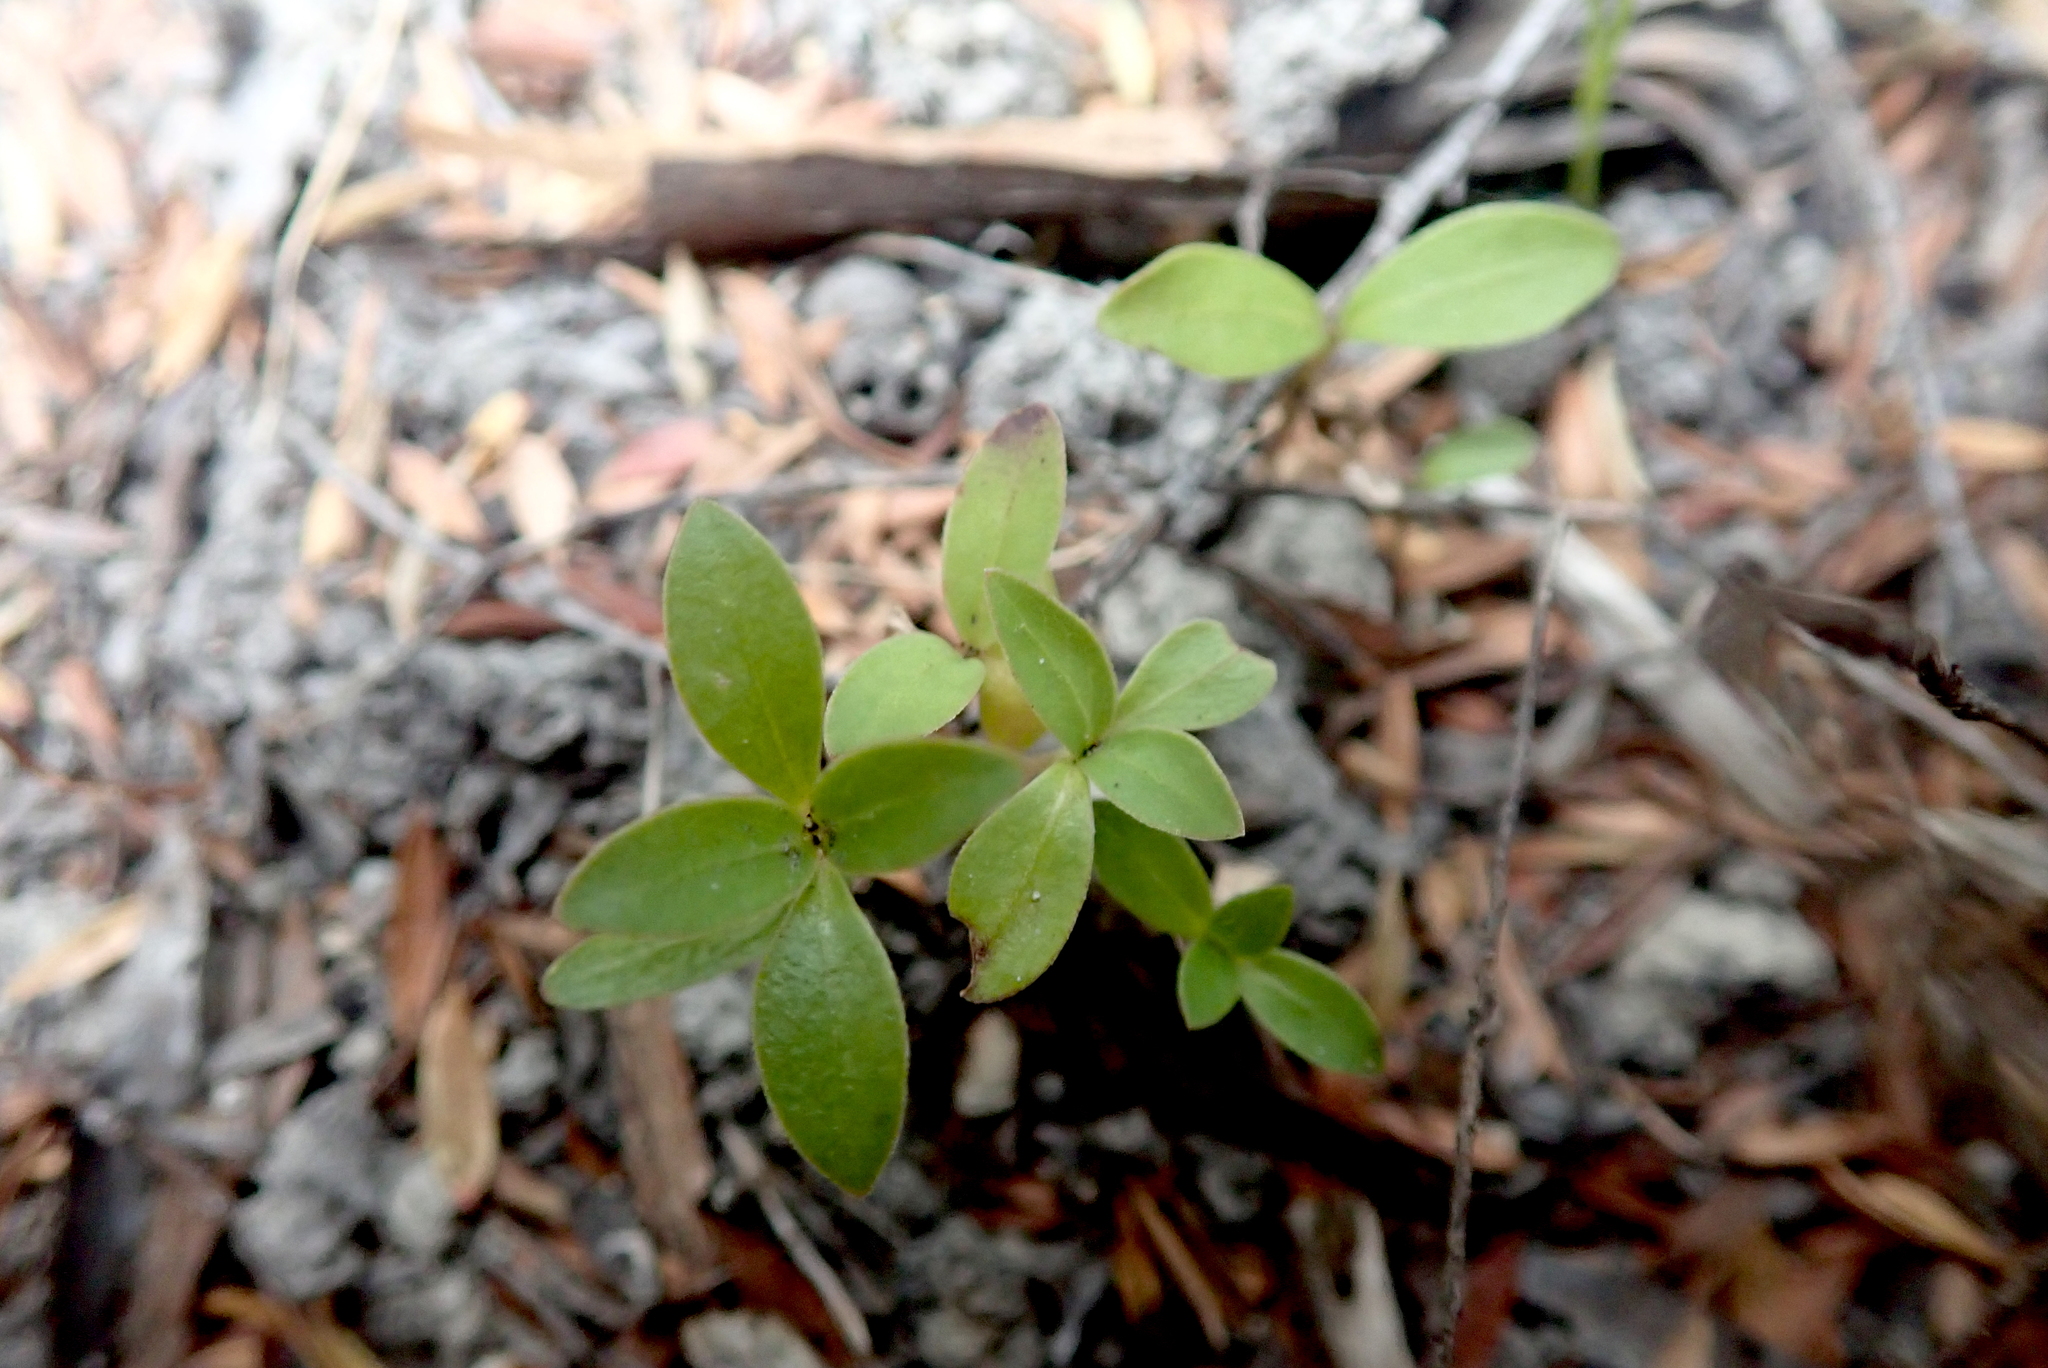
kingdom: Plantae
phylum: Tracheophyta
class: Magnoliopsida
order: Gentianales
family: Rubiaceae
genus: Coprosma
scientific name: Coprosma lucida
